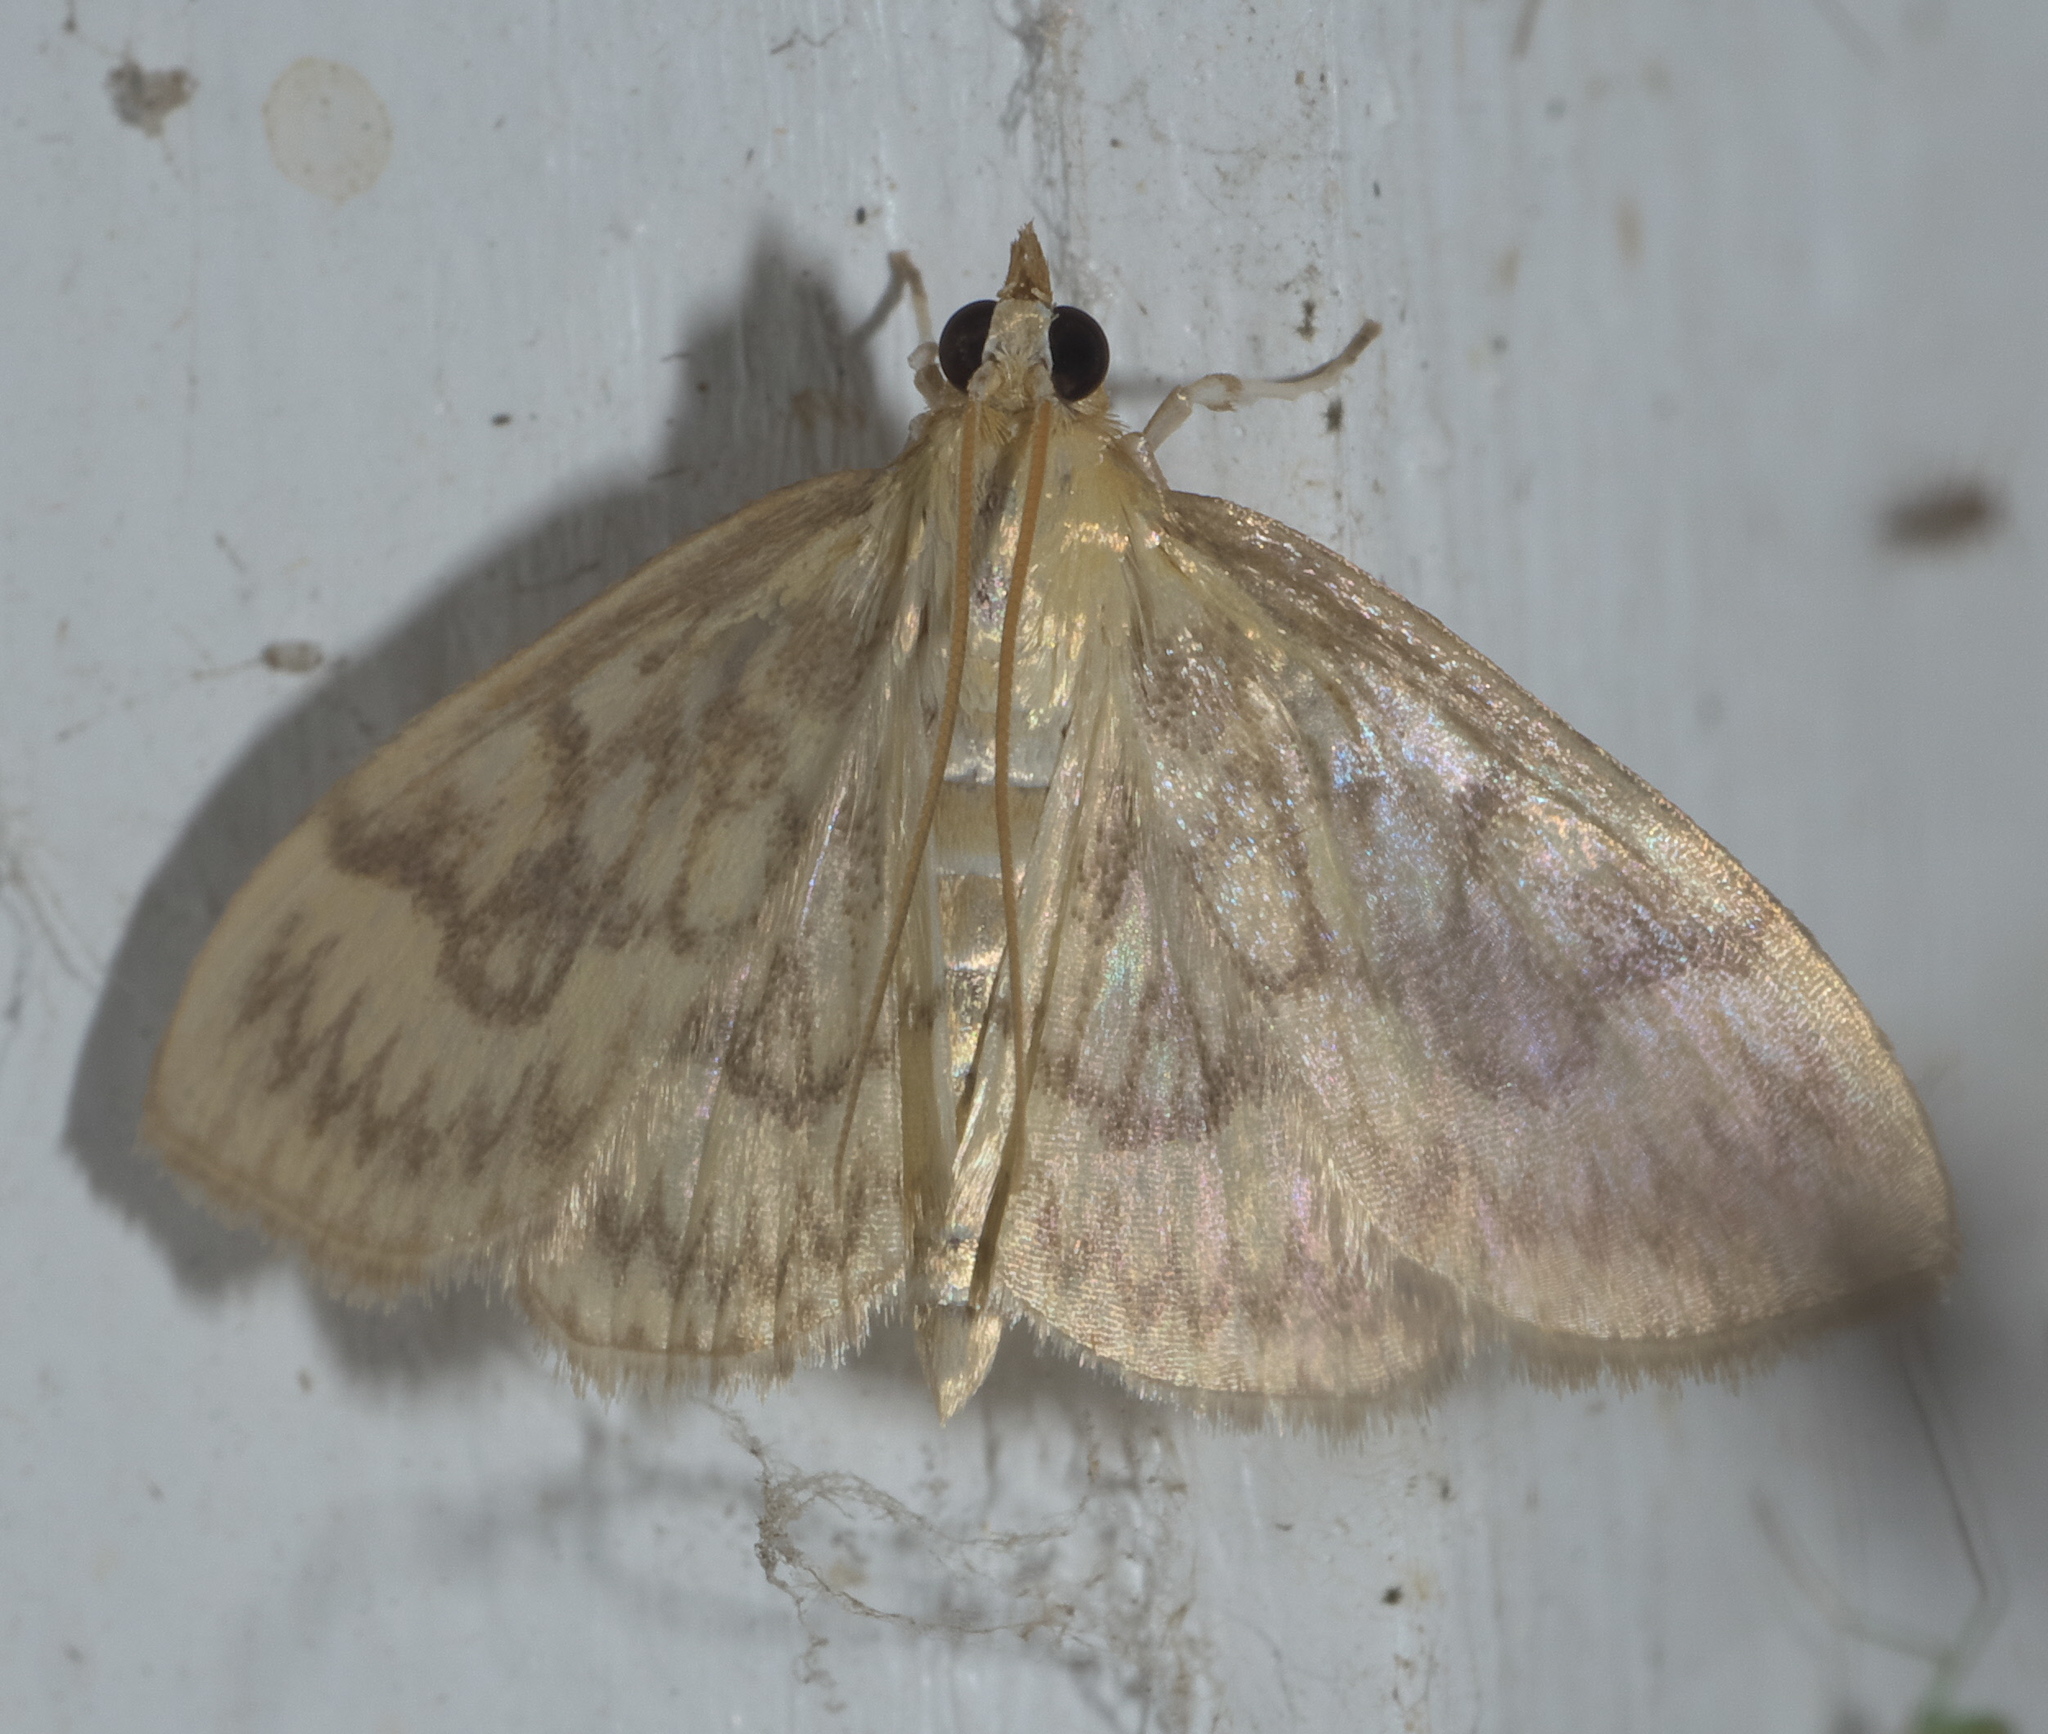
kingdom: Animalia
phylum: Arthropoda
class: Insecta
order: Lepidoptera
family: Crambidae
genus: Crocidophora
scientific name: Crocidophora serratissimalis
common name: Saw-toothed crocidophora moth
